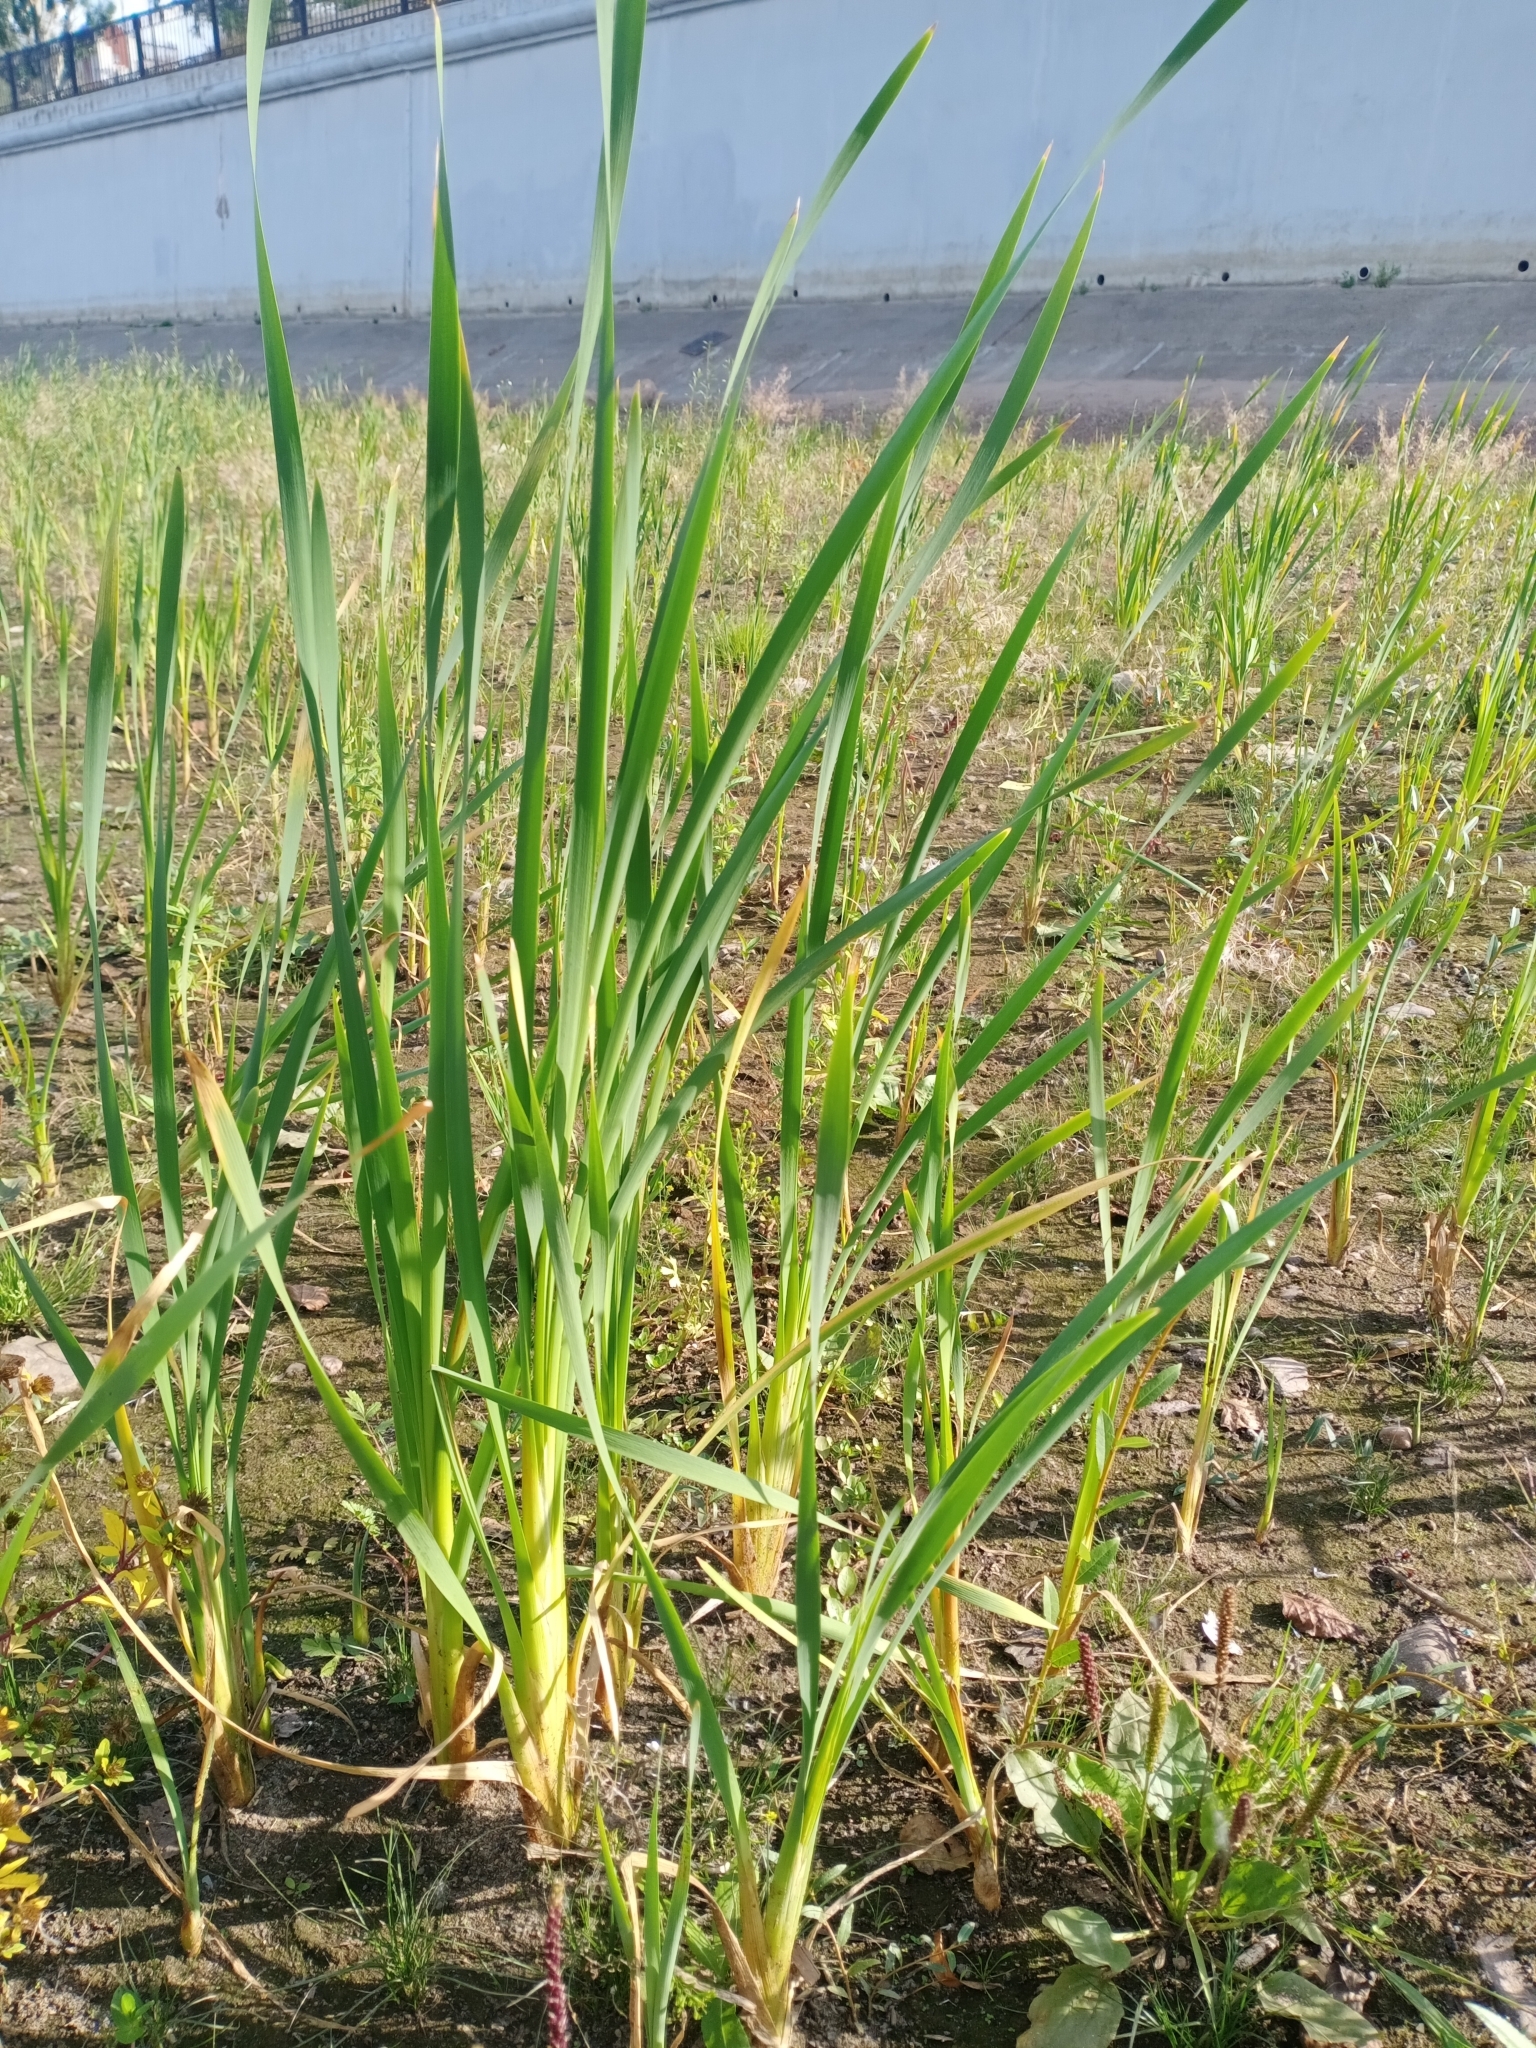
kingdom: Plantae
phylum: Tracheophyta
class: Liliopsida
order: Poales
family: Typhaceae
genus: Typha
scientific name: Typha latifolia
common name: Broadleaf cattail
